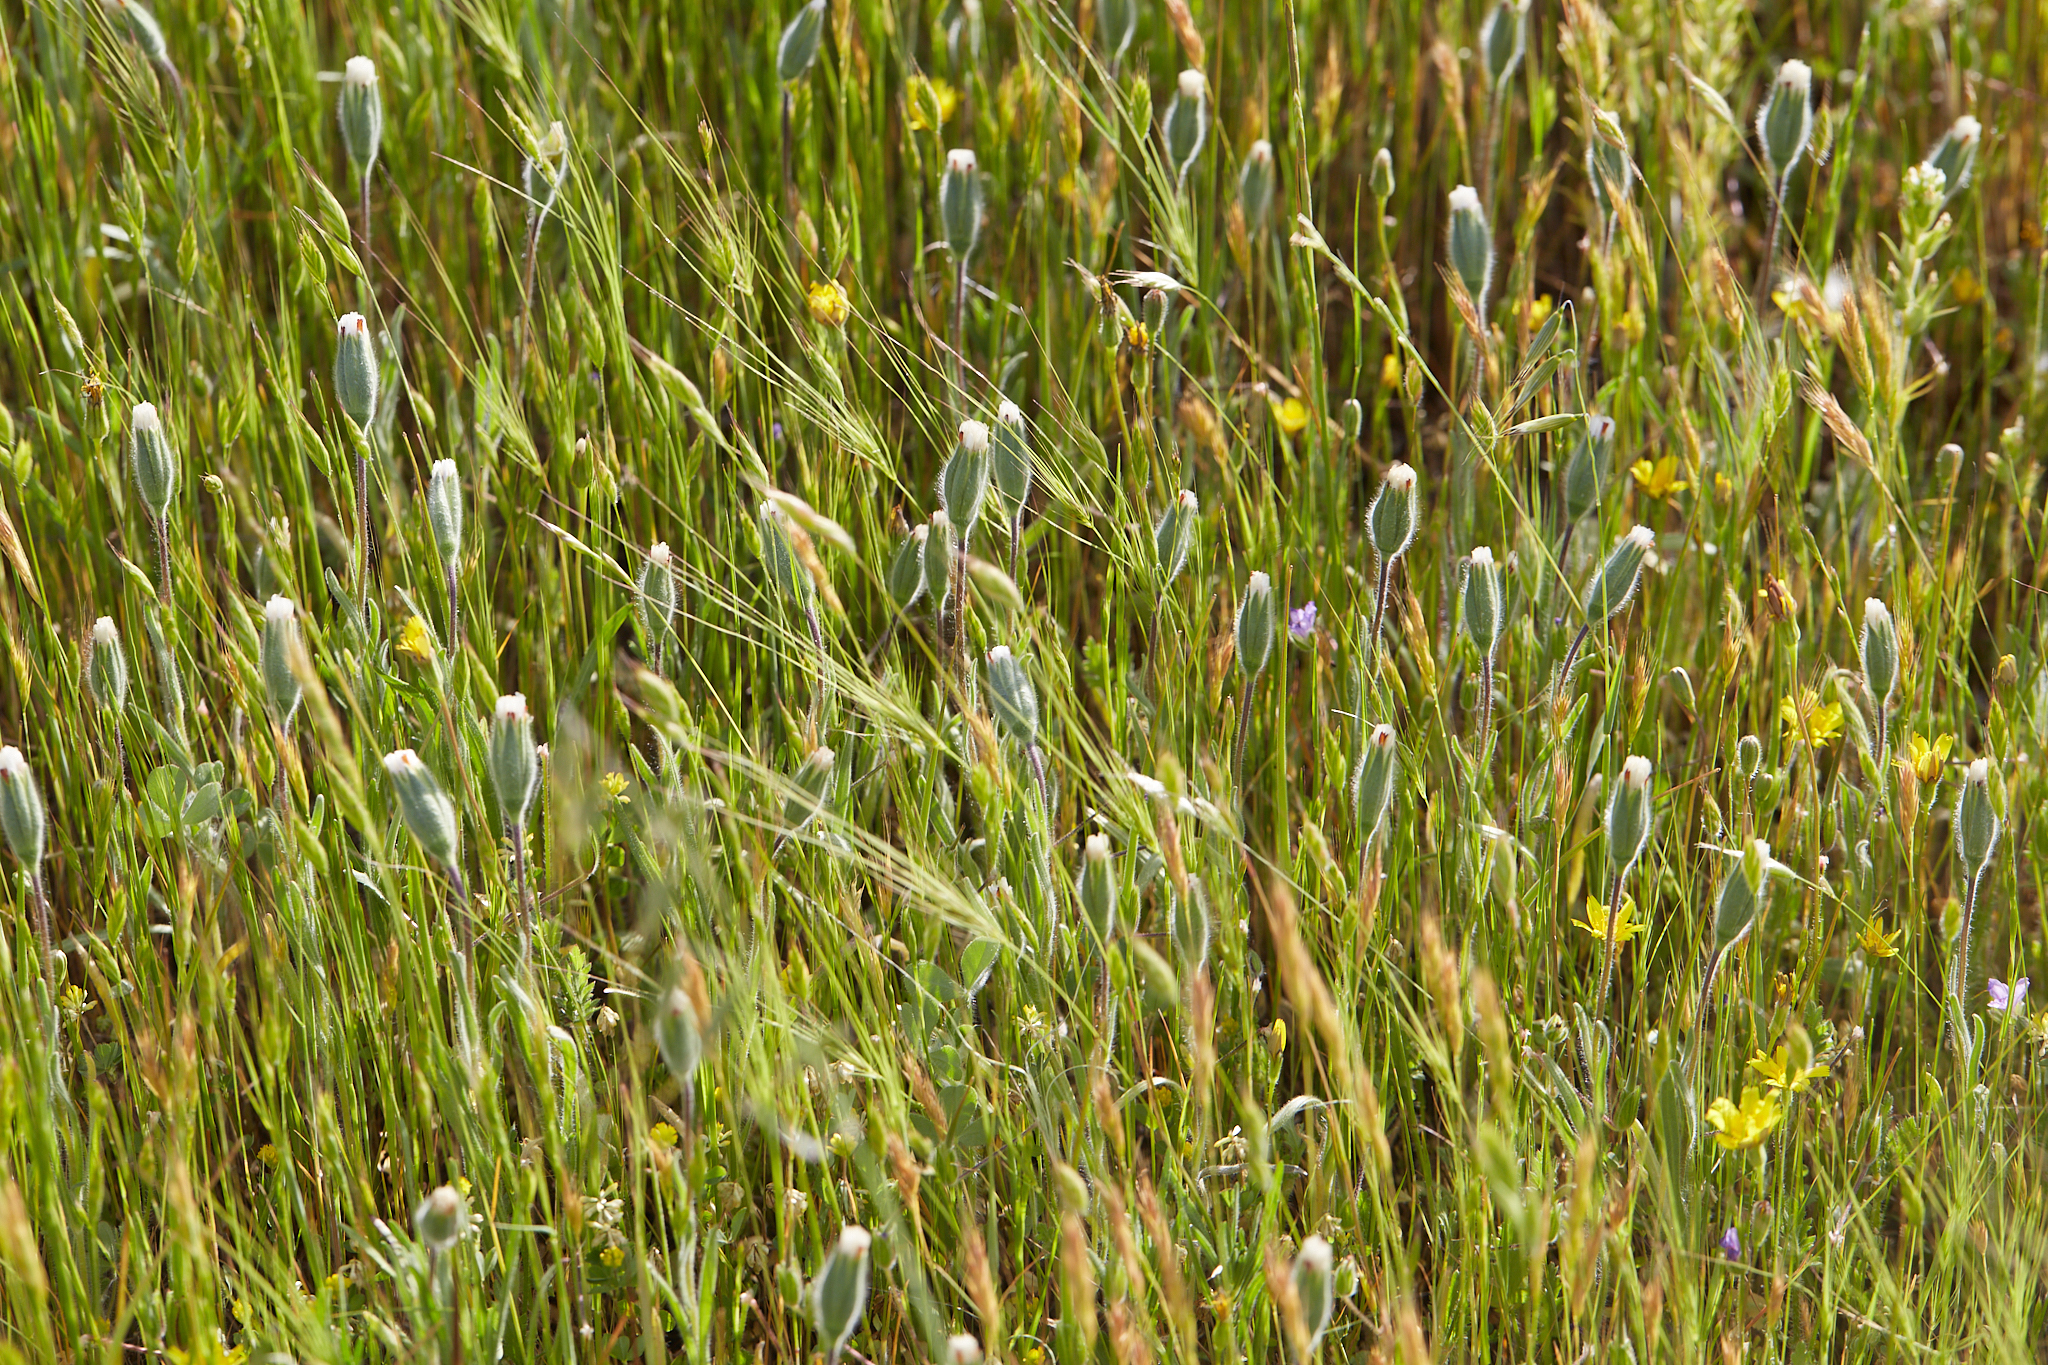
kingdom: Plantae
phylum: Tracheophyta
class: Magnoliopsida
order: Asterales
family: Asteraceae
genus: Achyrachaena
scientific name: Achyrachaena mollis
